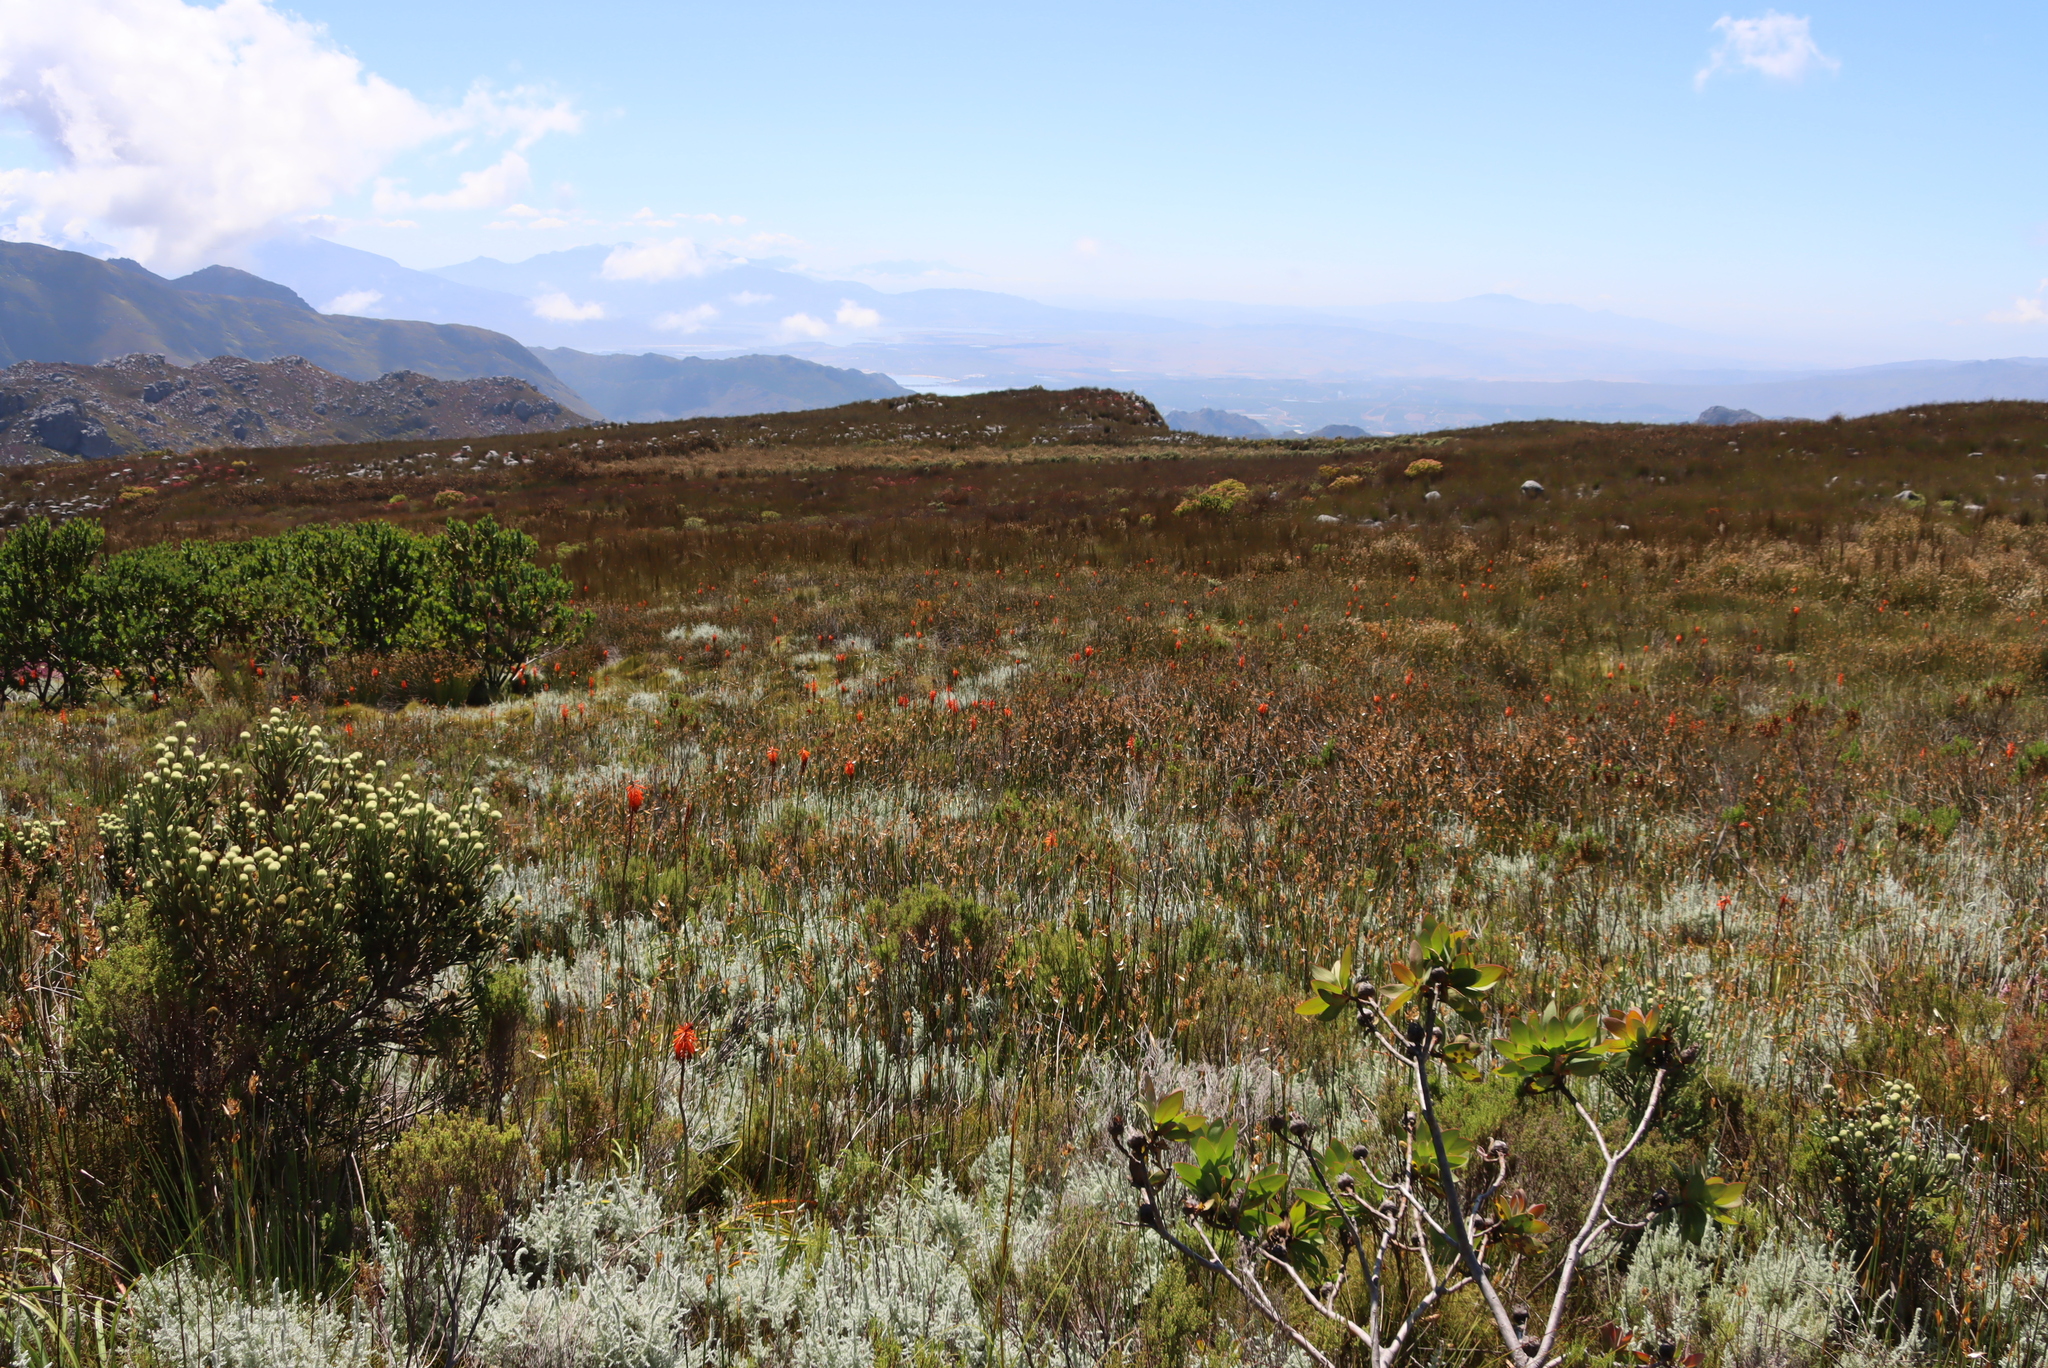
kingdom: Plantae
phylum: Tracheophyta
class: Liliopsida
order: Asparagales
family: Asphodelaceae
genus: Kniphofia
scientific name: Kniphofia tabularis
